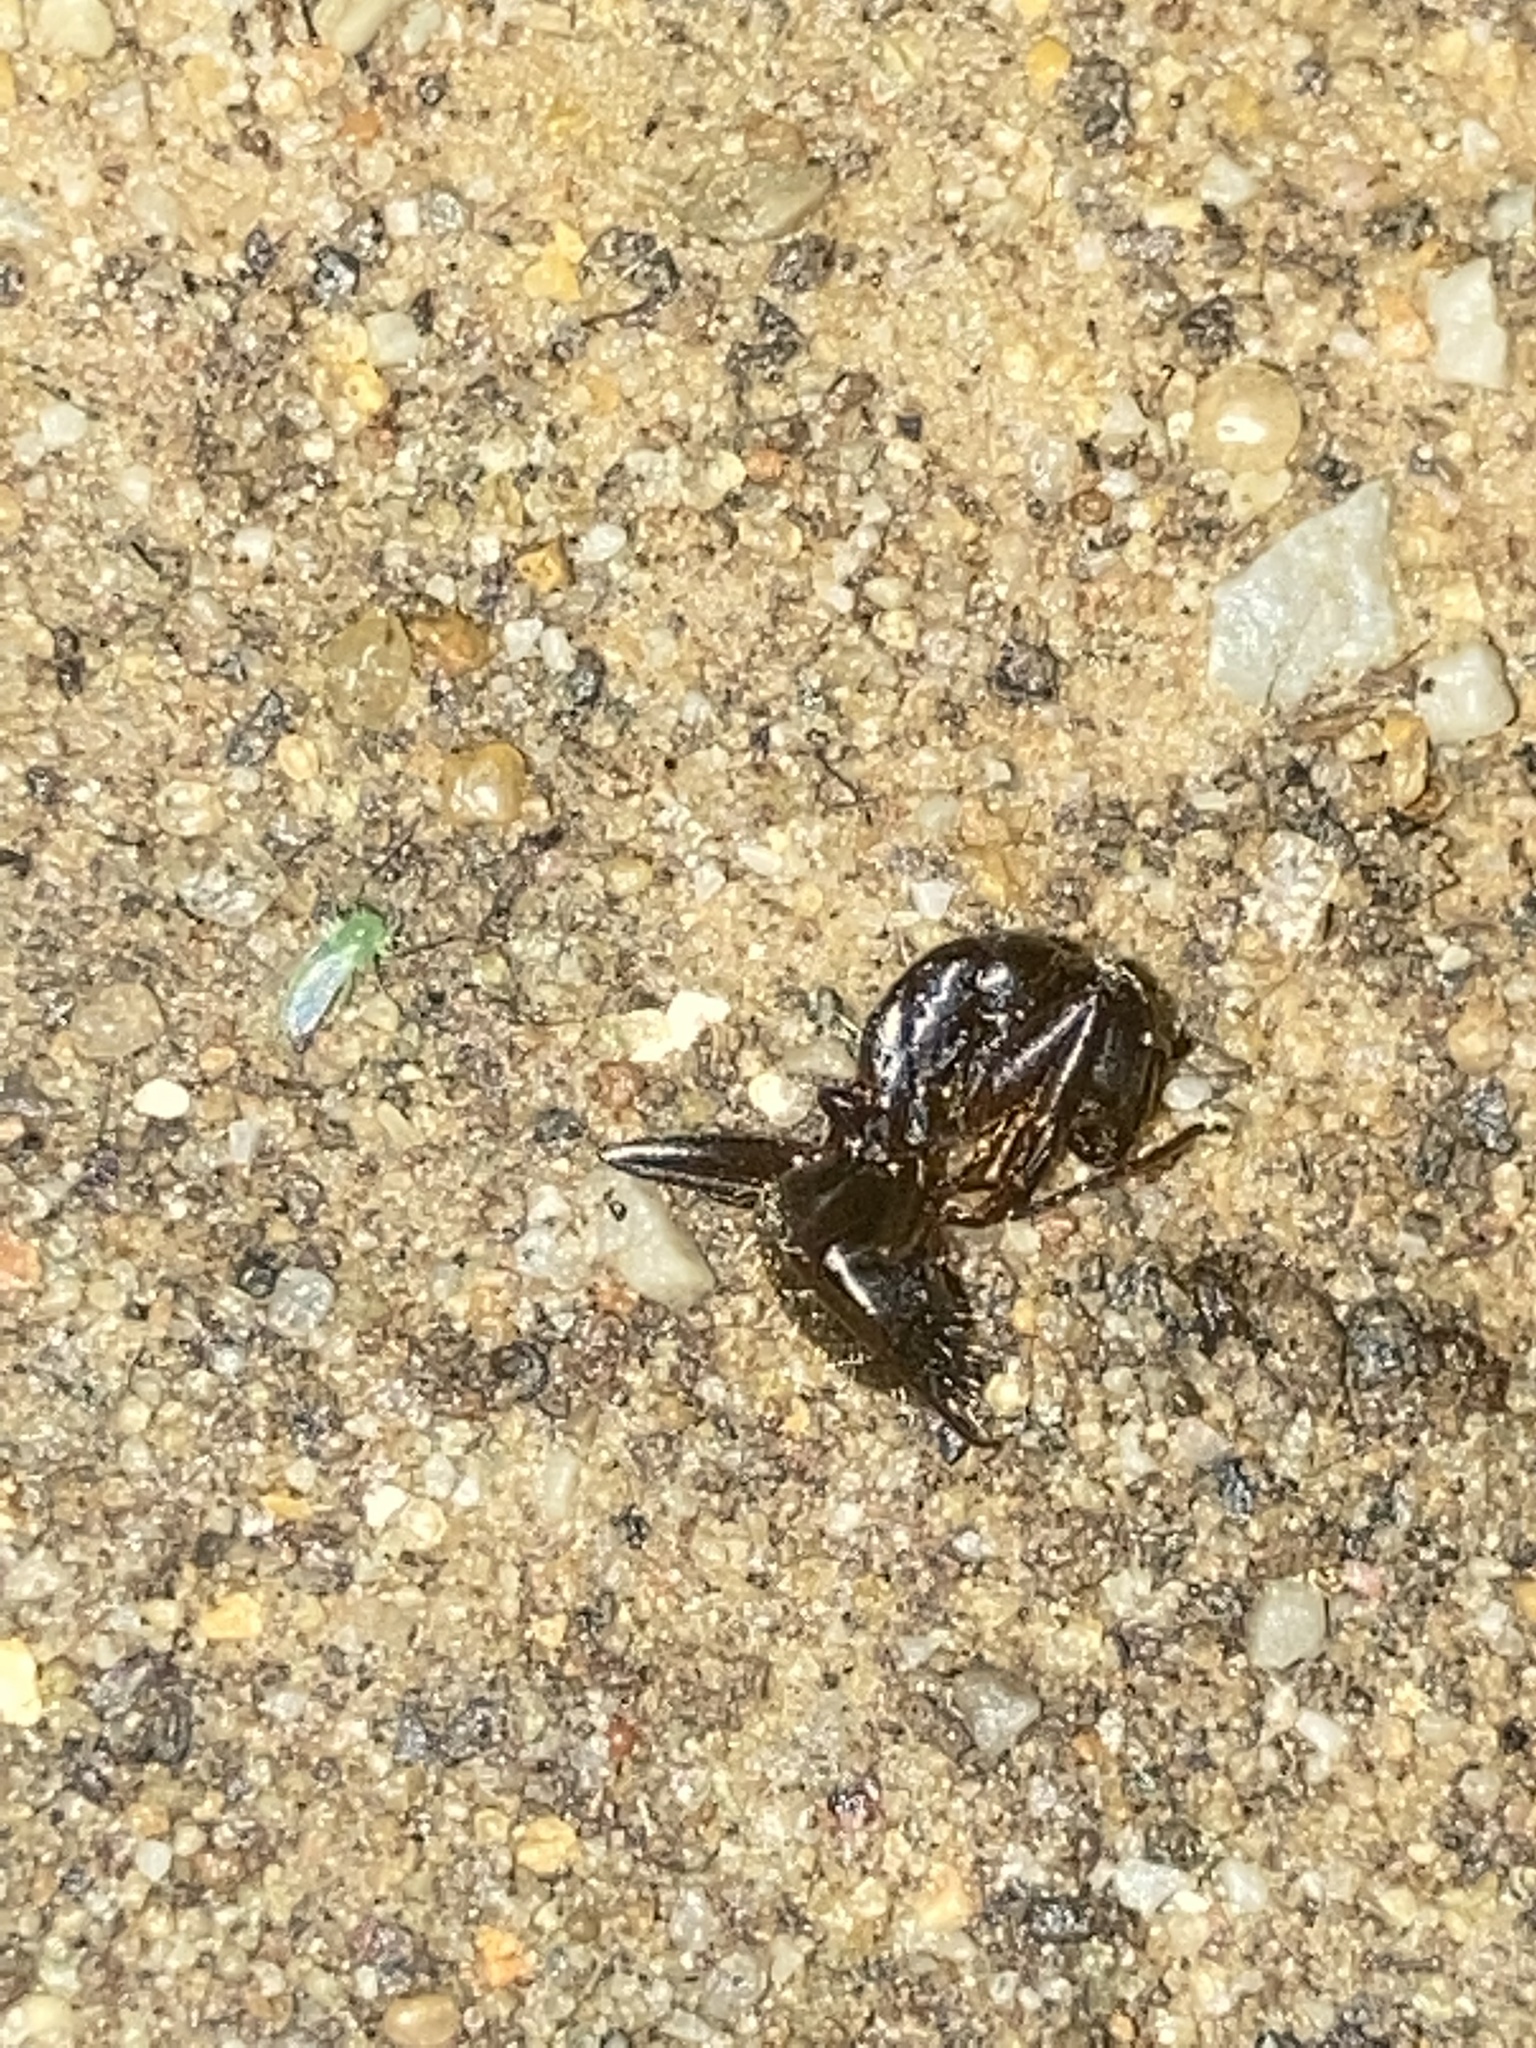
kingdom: Animalia
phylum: Arthropoda
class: Insecta
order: Hymenoptera
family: Formicidae
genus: Camponotus
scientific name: Camponotus pennsylvanicus
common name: Black carpenter ant
